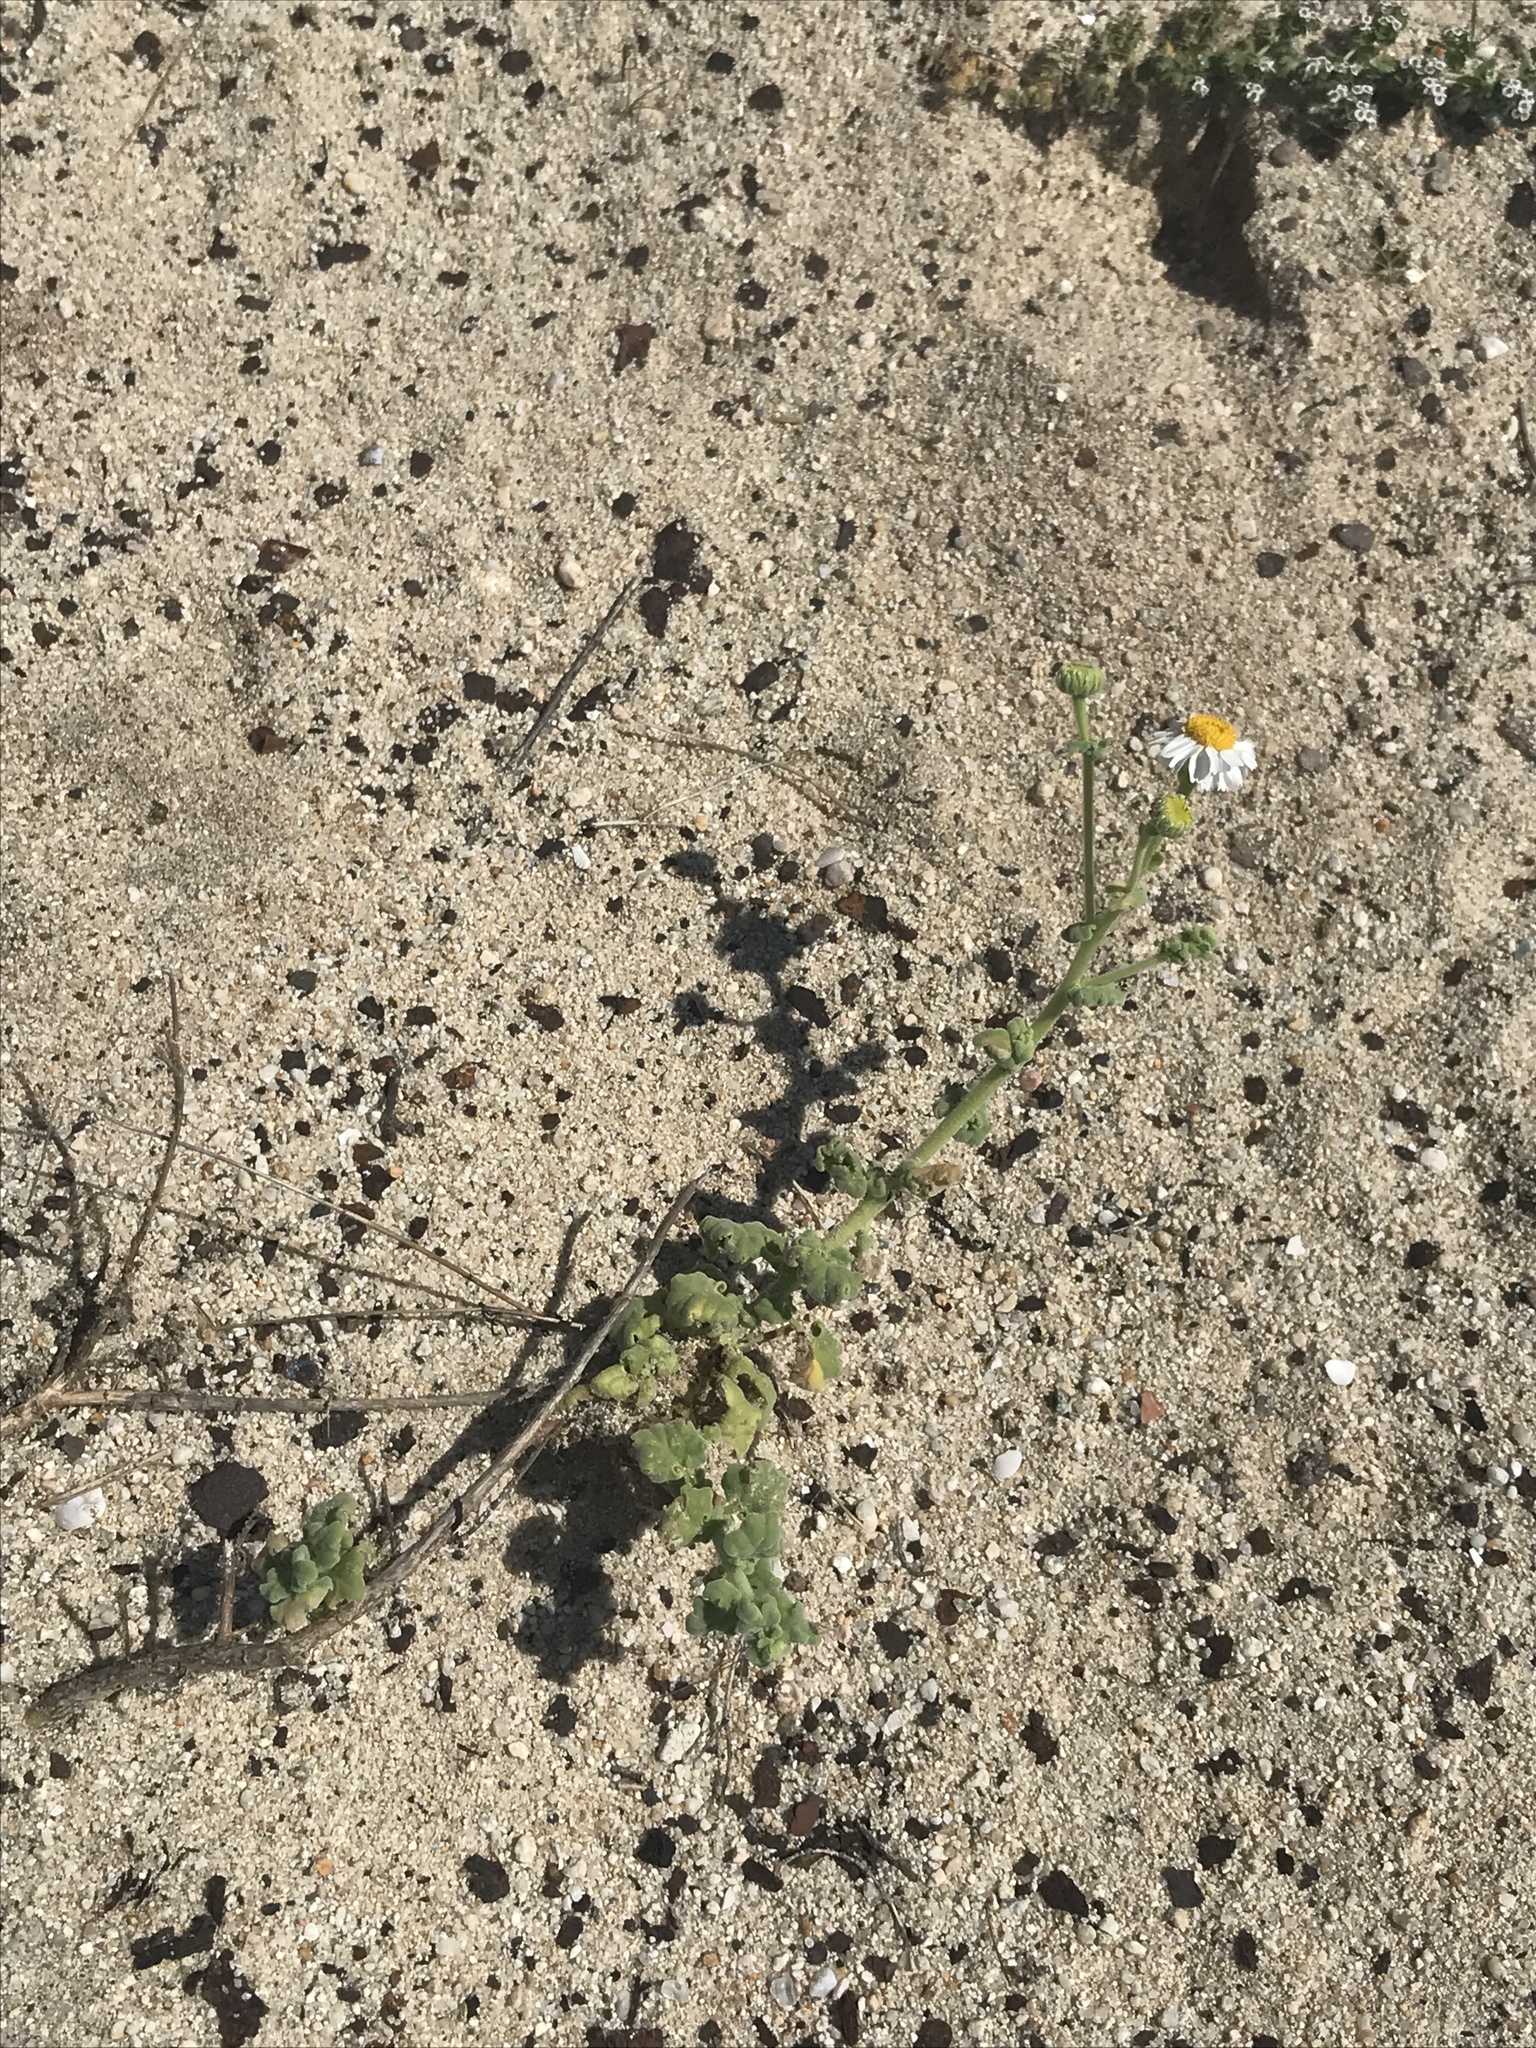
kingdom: Plantae
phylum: Tracheophyta
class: Magnoliopsida
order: Asterales
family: Asteraceae
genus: Perityle
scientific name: Perityle crassifolia
